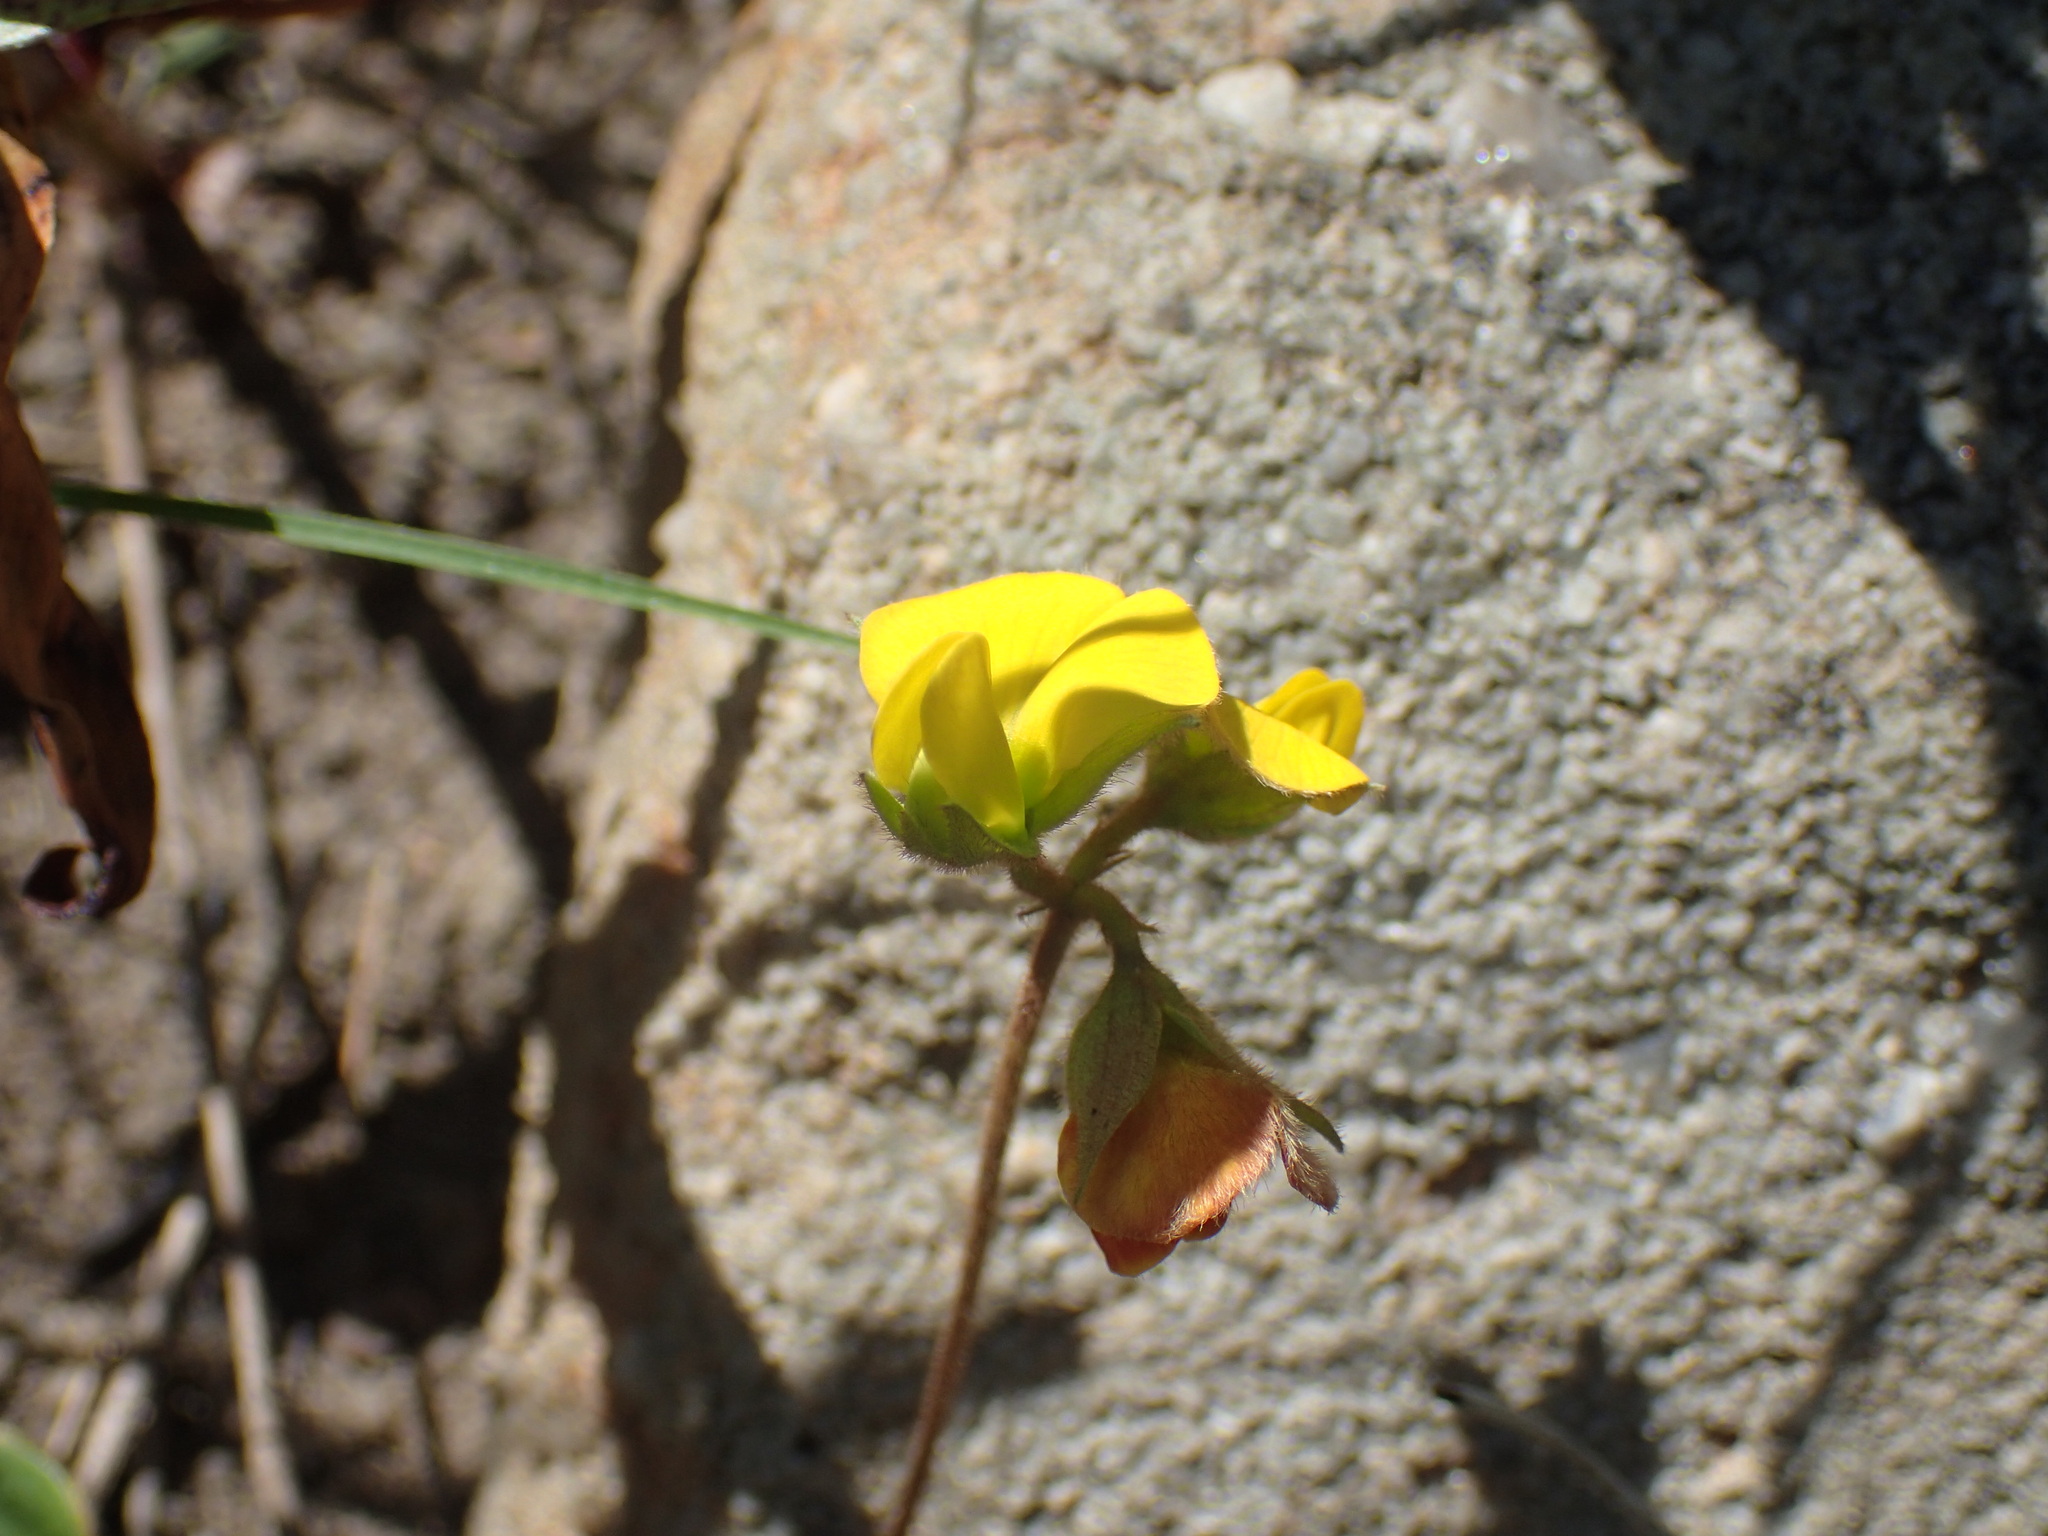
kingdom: Plantae
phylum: Tracheophyta
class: Magnoliopsida
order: Fabales
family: Fabaceae
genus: Argyrolobium
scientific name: Argyrolobium rotundifolium
